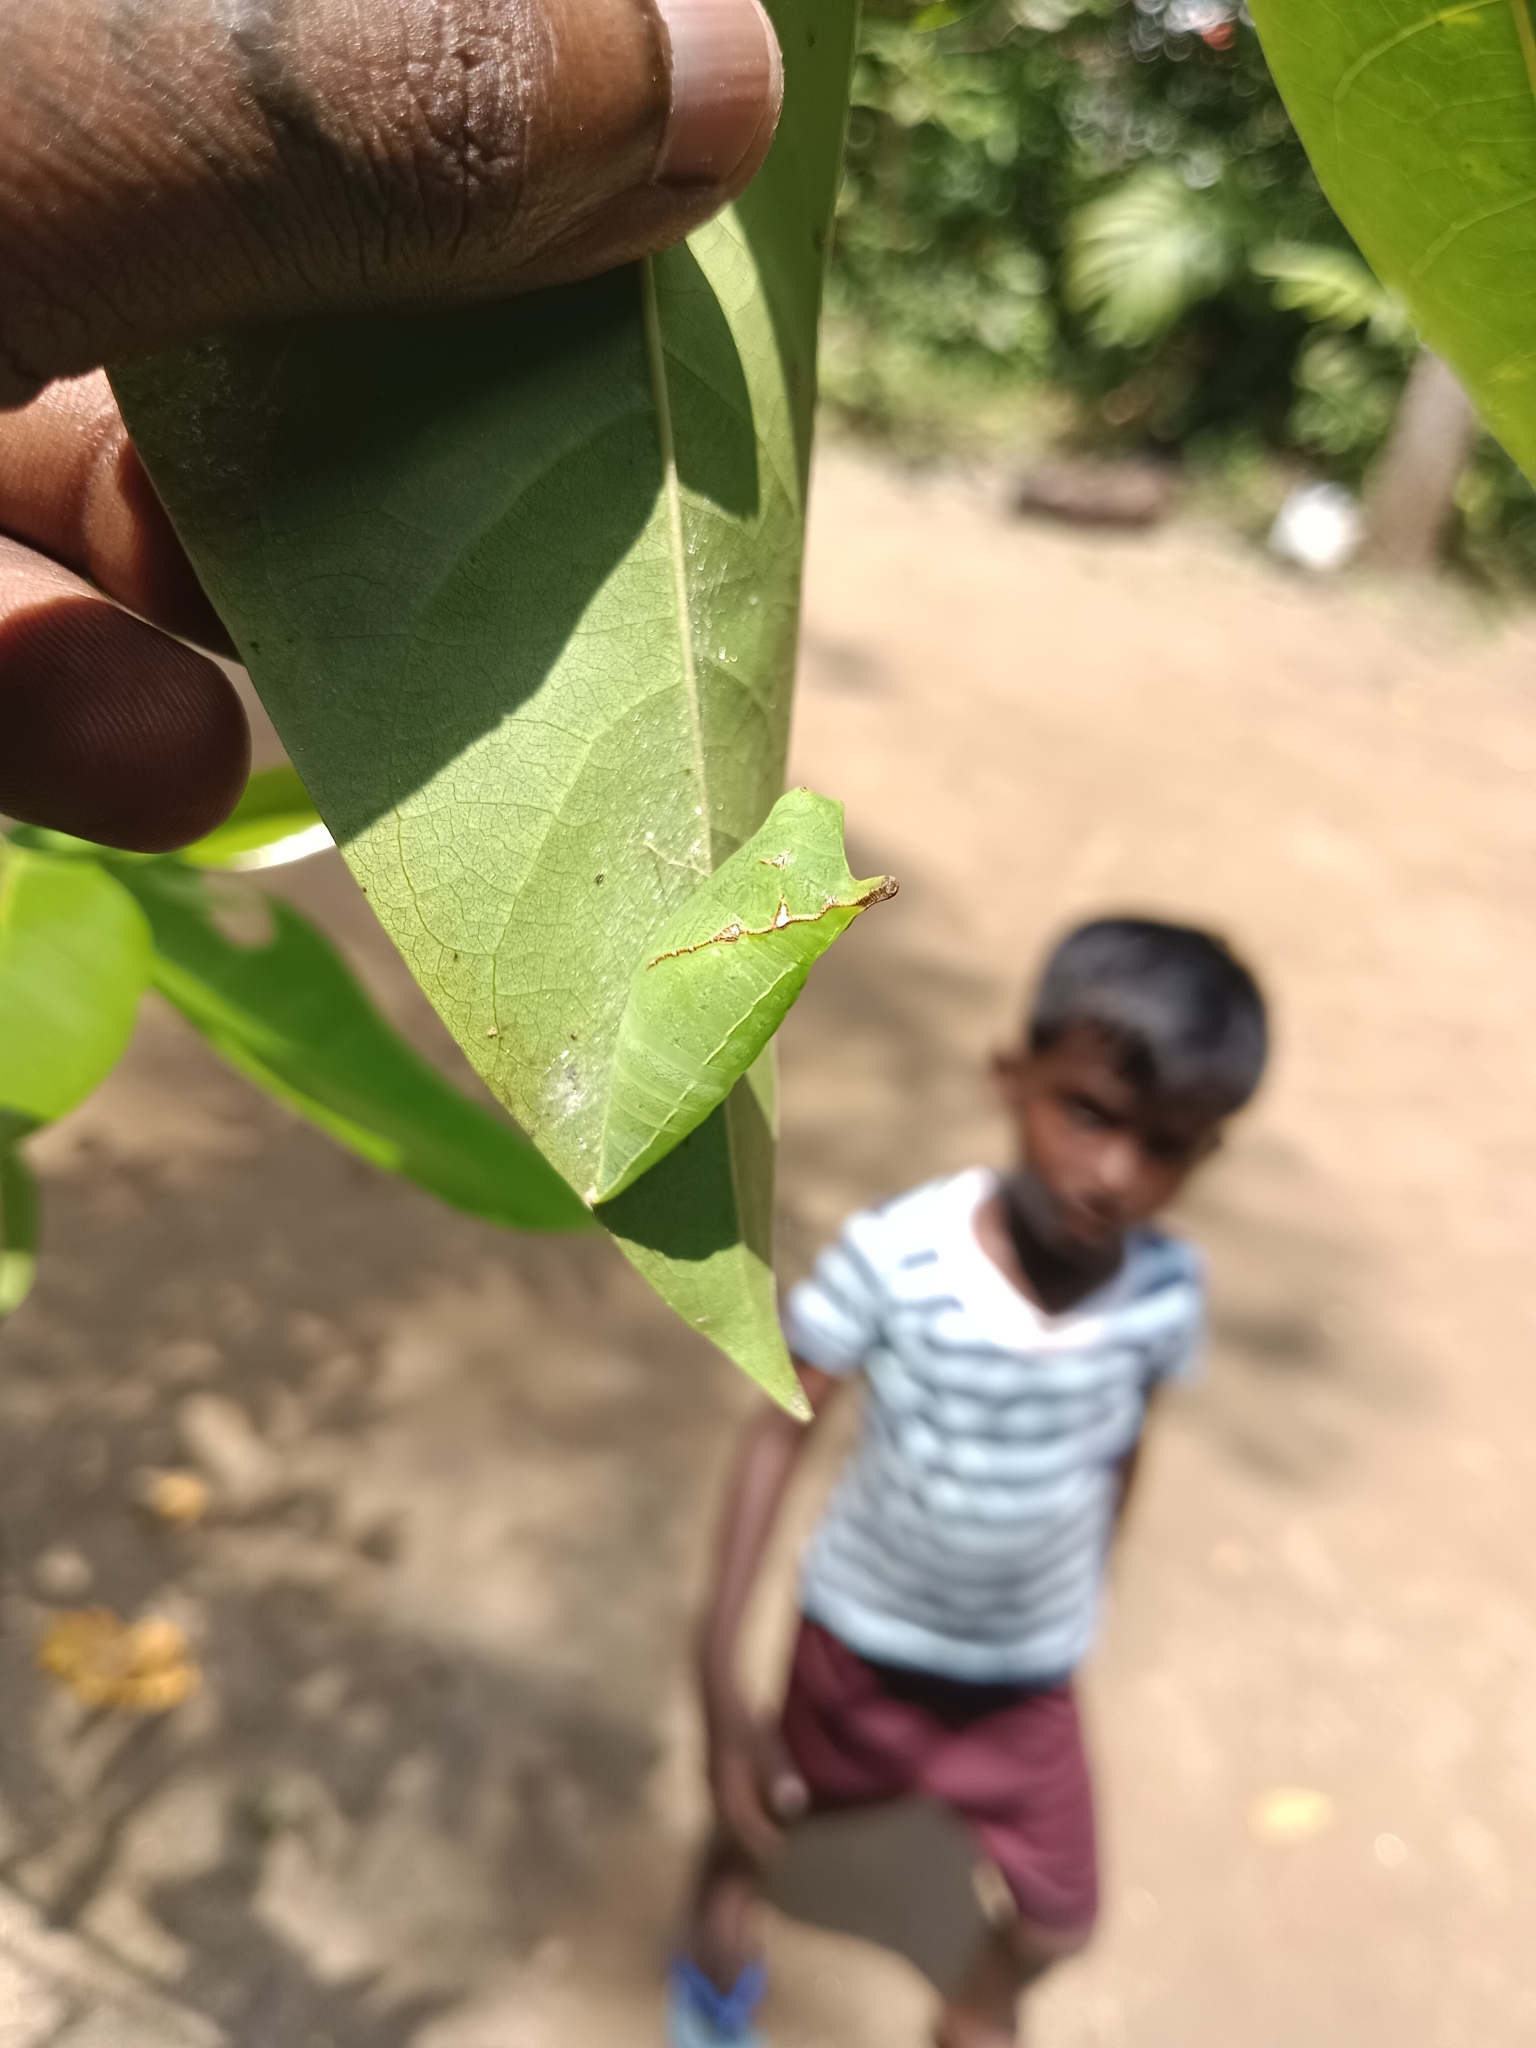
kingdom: Animalia
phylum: Arthropoda
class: Insecta
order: Lepidoptera
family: Papilionidae
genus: Graphium
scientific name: Graphium agamemnon
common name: Tailed jay
